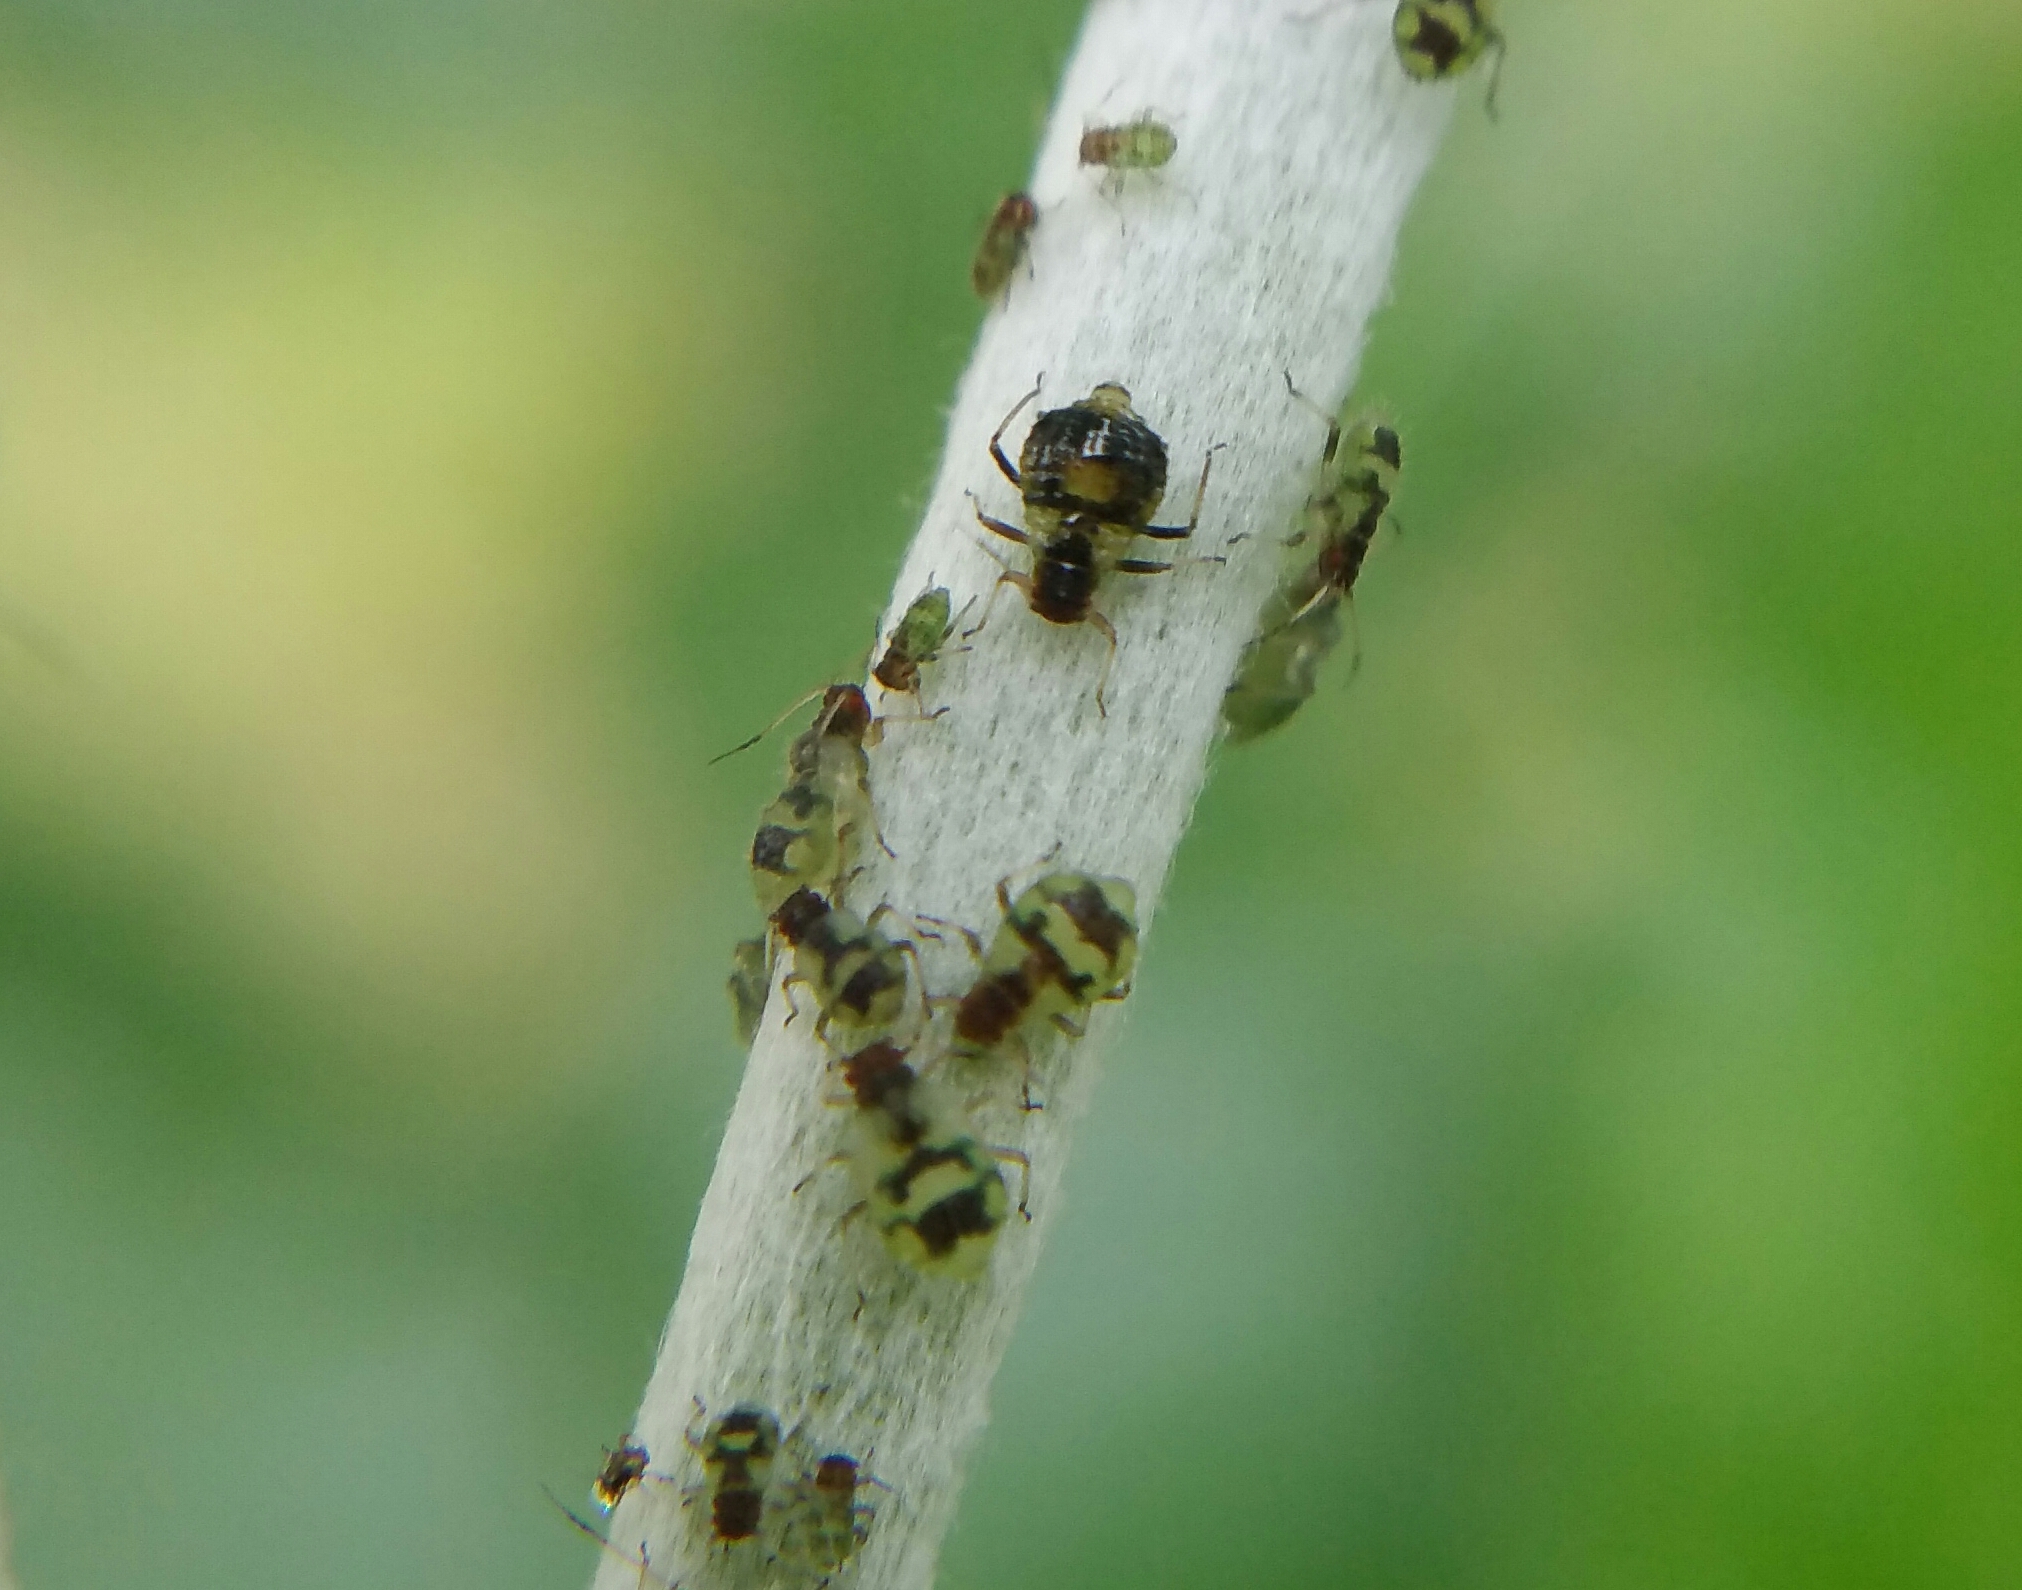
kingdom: Animalia
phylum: Arthropoda
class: Insecta
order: Hemiptera
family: Aphididae
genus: Chaitophorus
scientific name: Chaitophorus populeti
